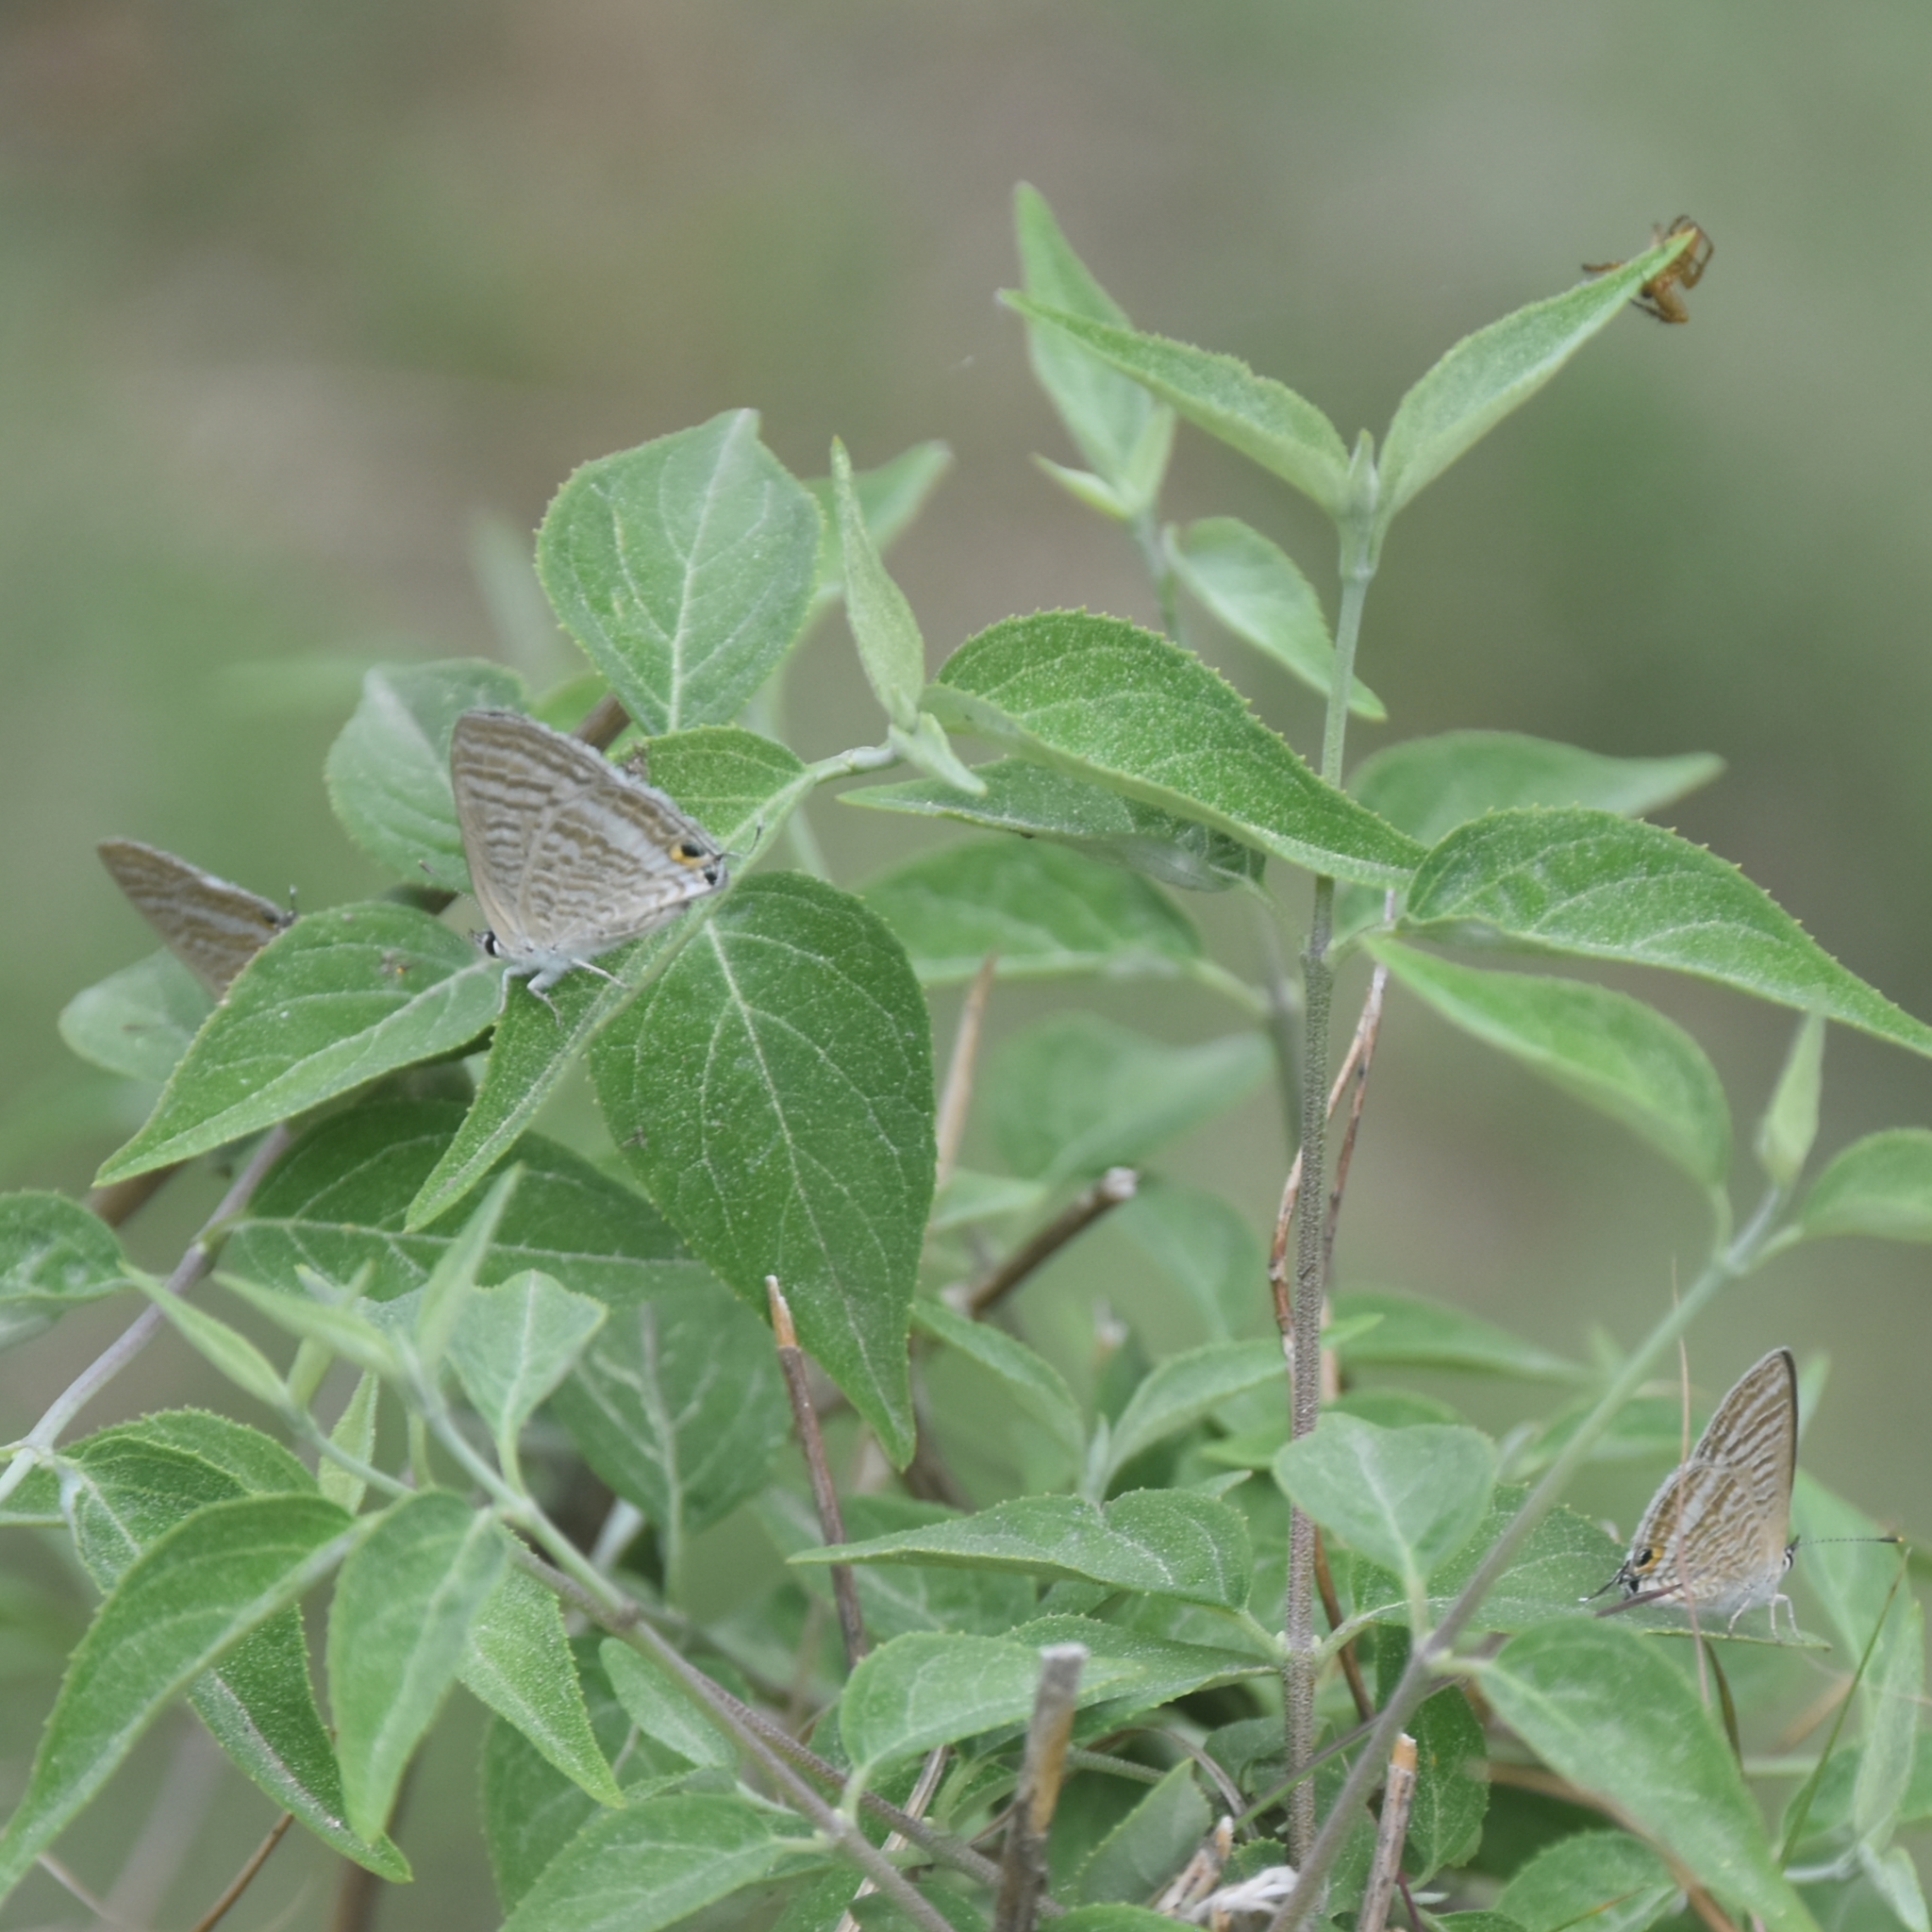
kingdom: Animalia
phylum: Arthropoda
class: Insecta
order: Lepidoptera
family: Lycaenidae
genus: Lampides
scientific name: Lampides boeticus
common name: Long-tailed blue
